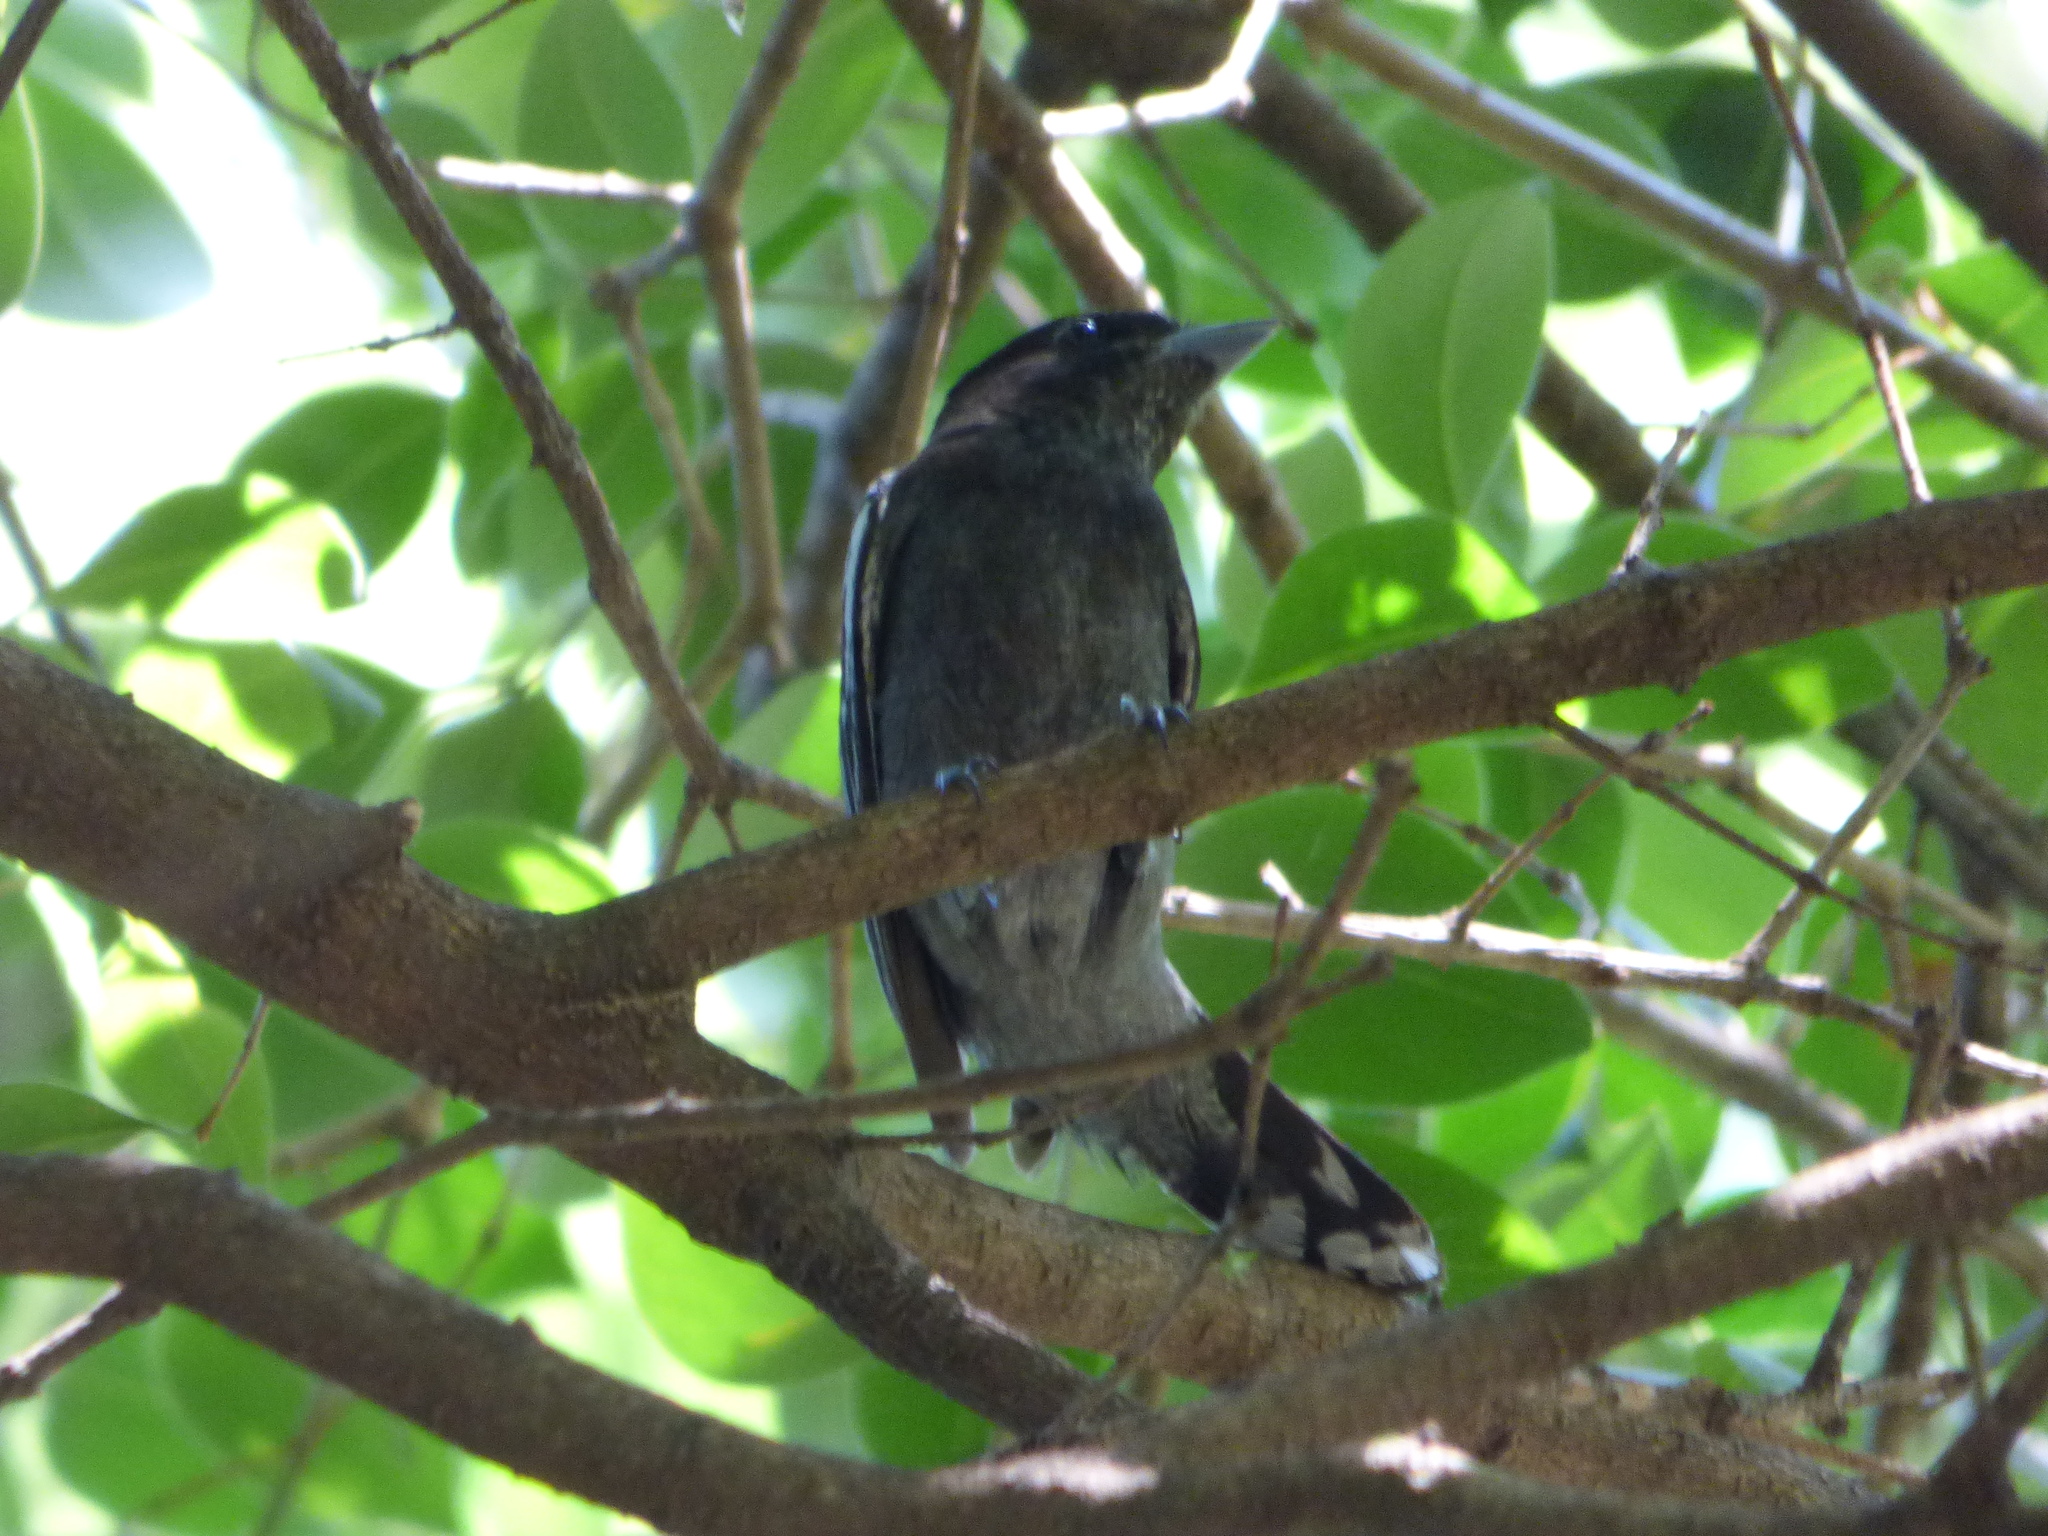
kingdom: Animalia
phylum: Chordata
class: Aves
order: Passeriformes
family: Cotingidae
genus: Pachyramphus
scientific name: Pachyramphus polychopterus
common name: White-winged becard
